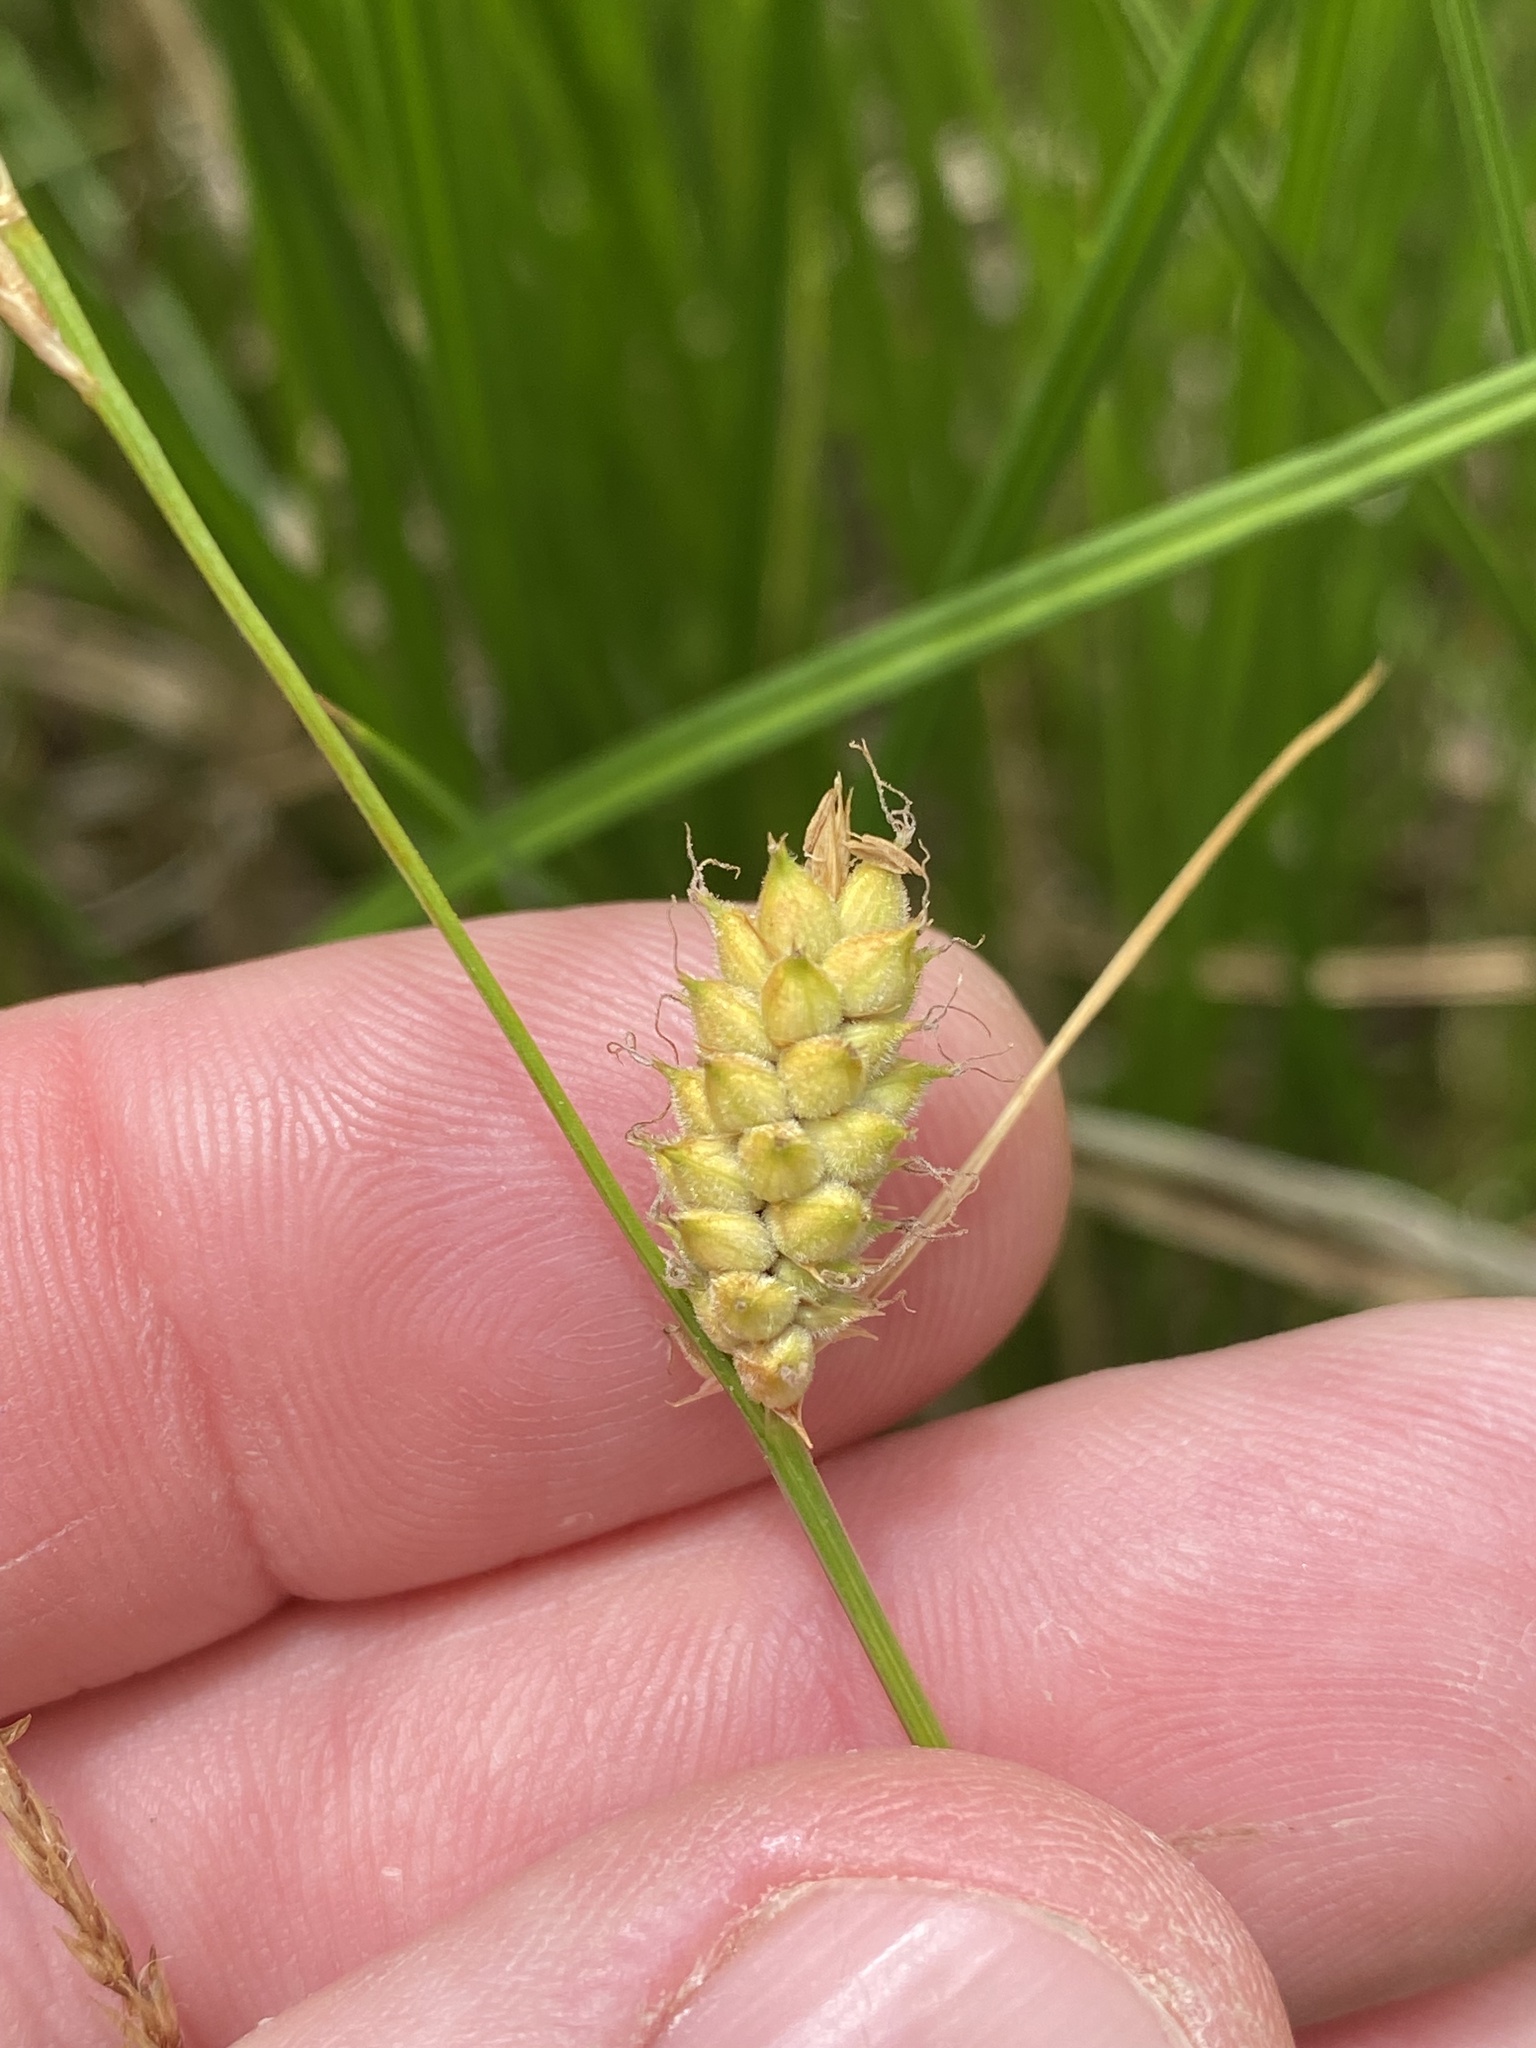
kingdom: Plantae
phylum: Tracheophyta
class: Liliopsida
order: Poales
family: Cyperaceae
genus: Carex
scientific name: Carex pellita
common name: Woolly sedge
